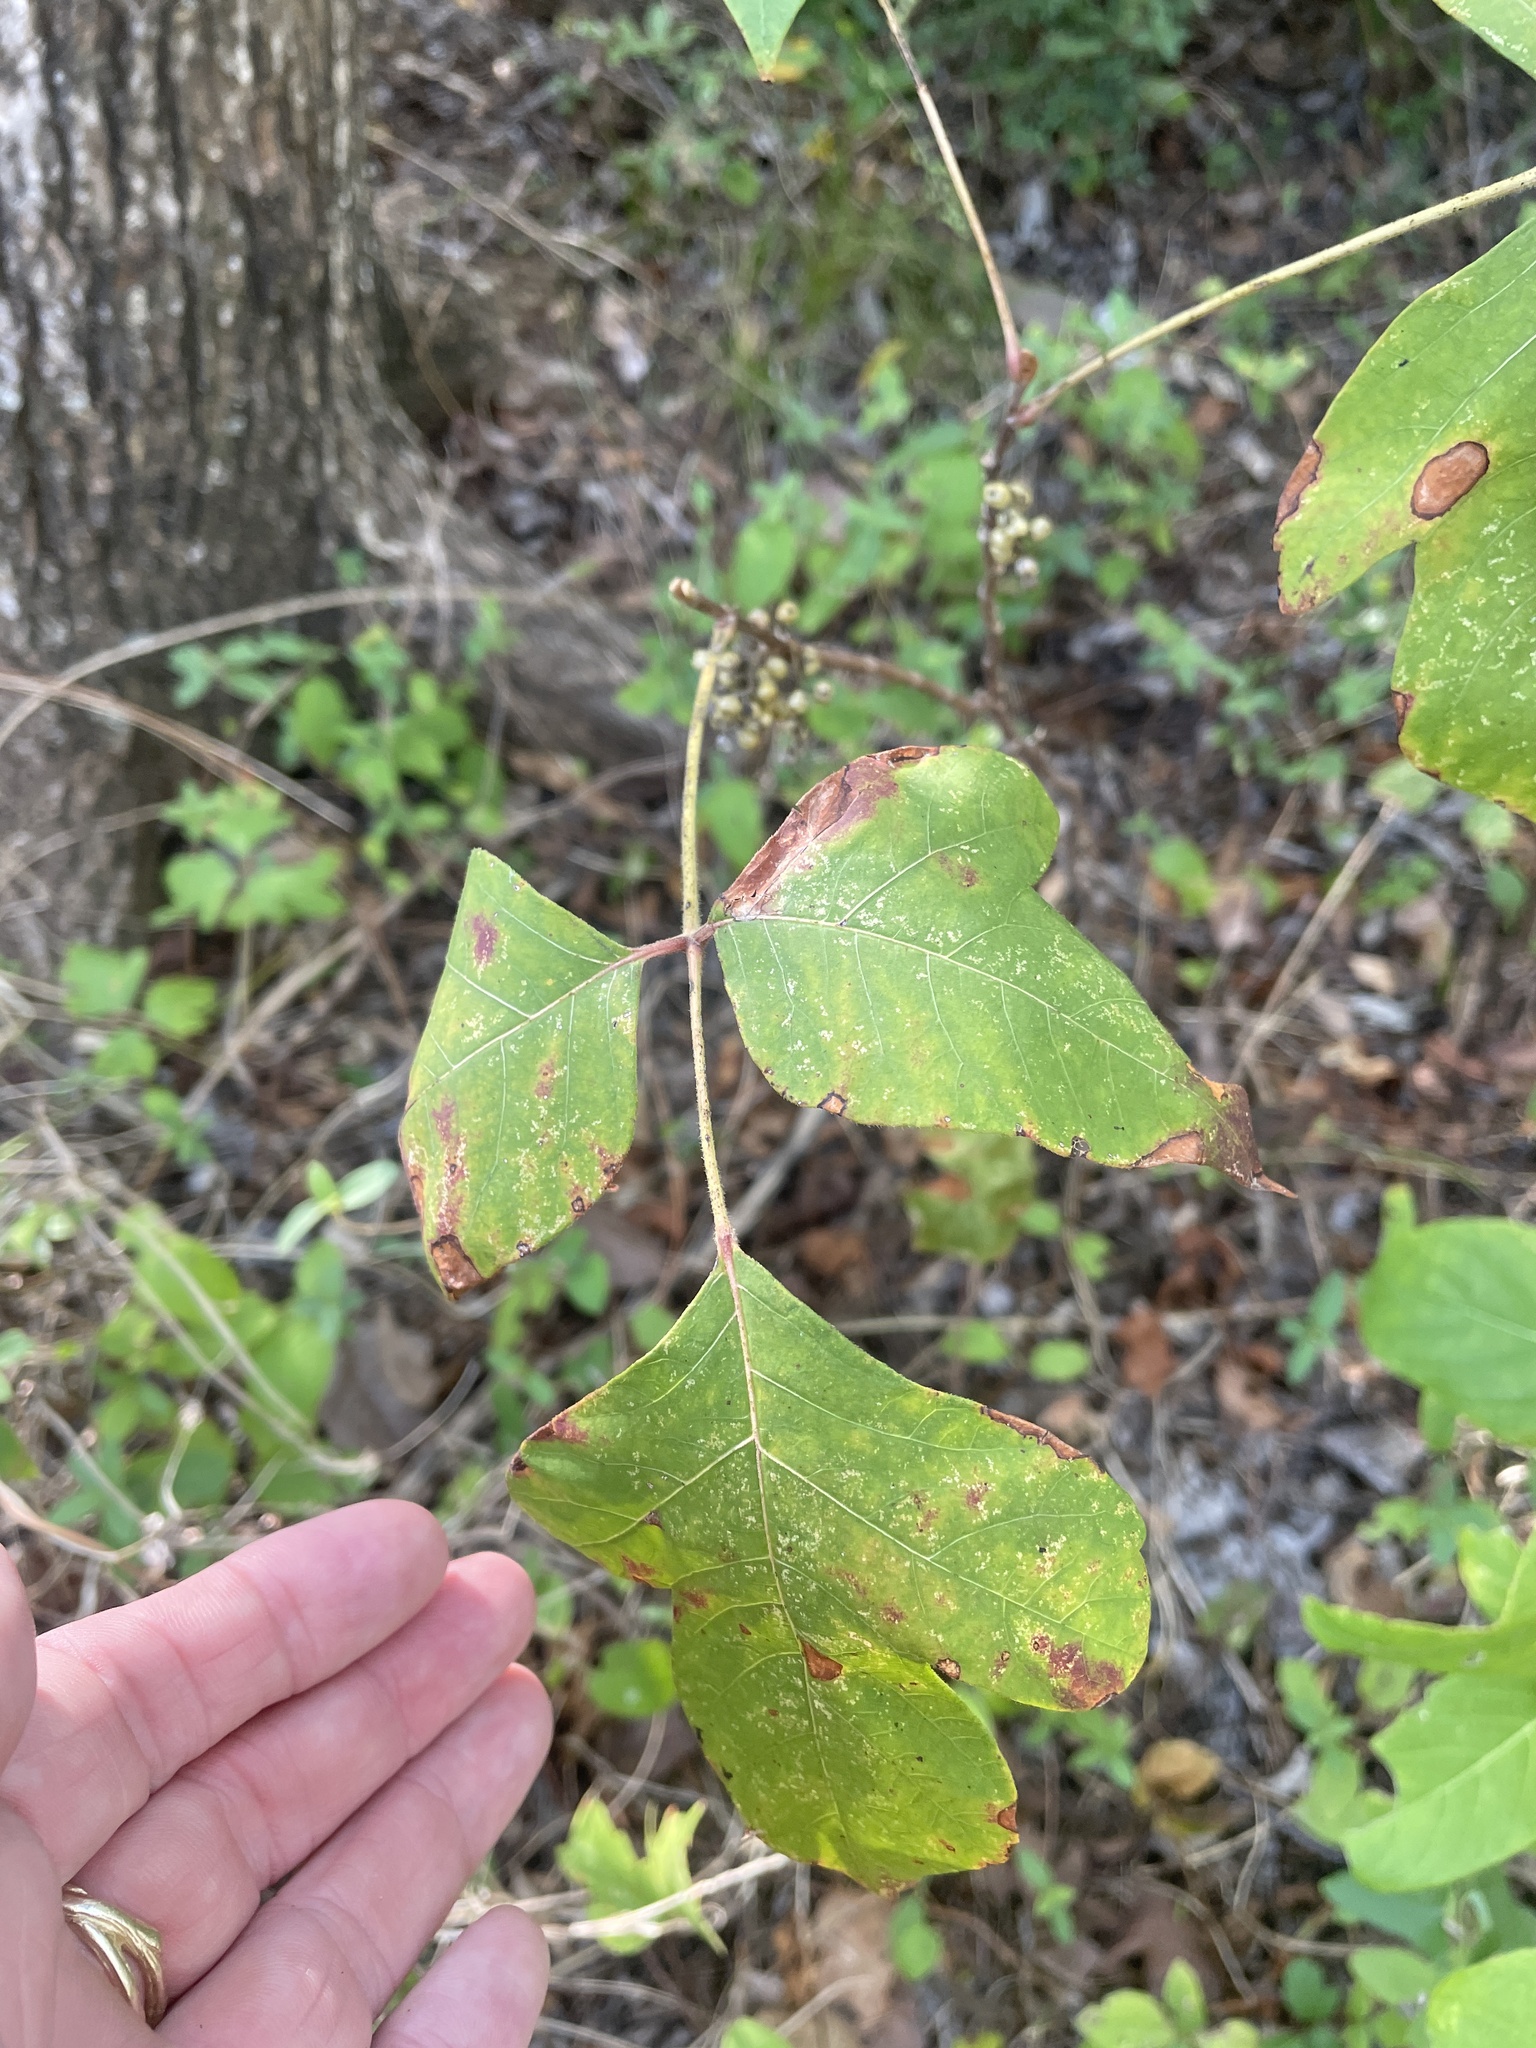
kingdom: Plantae
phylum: Tracheophyta
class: Magnoliopsida
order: Sapindales
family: Anacardiaceae
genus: Toxicodendron
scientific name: Toxicodendron radicans
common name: Poison ivy
